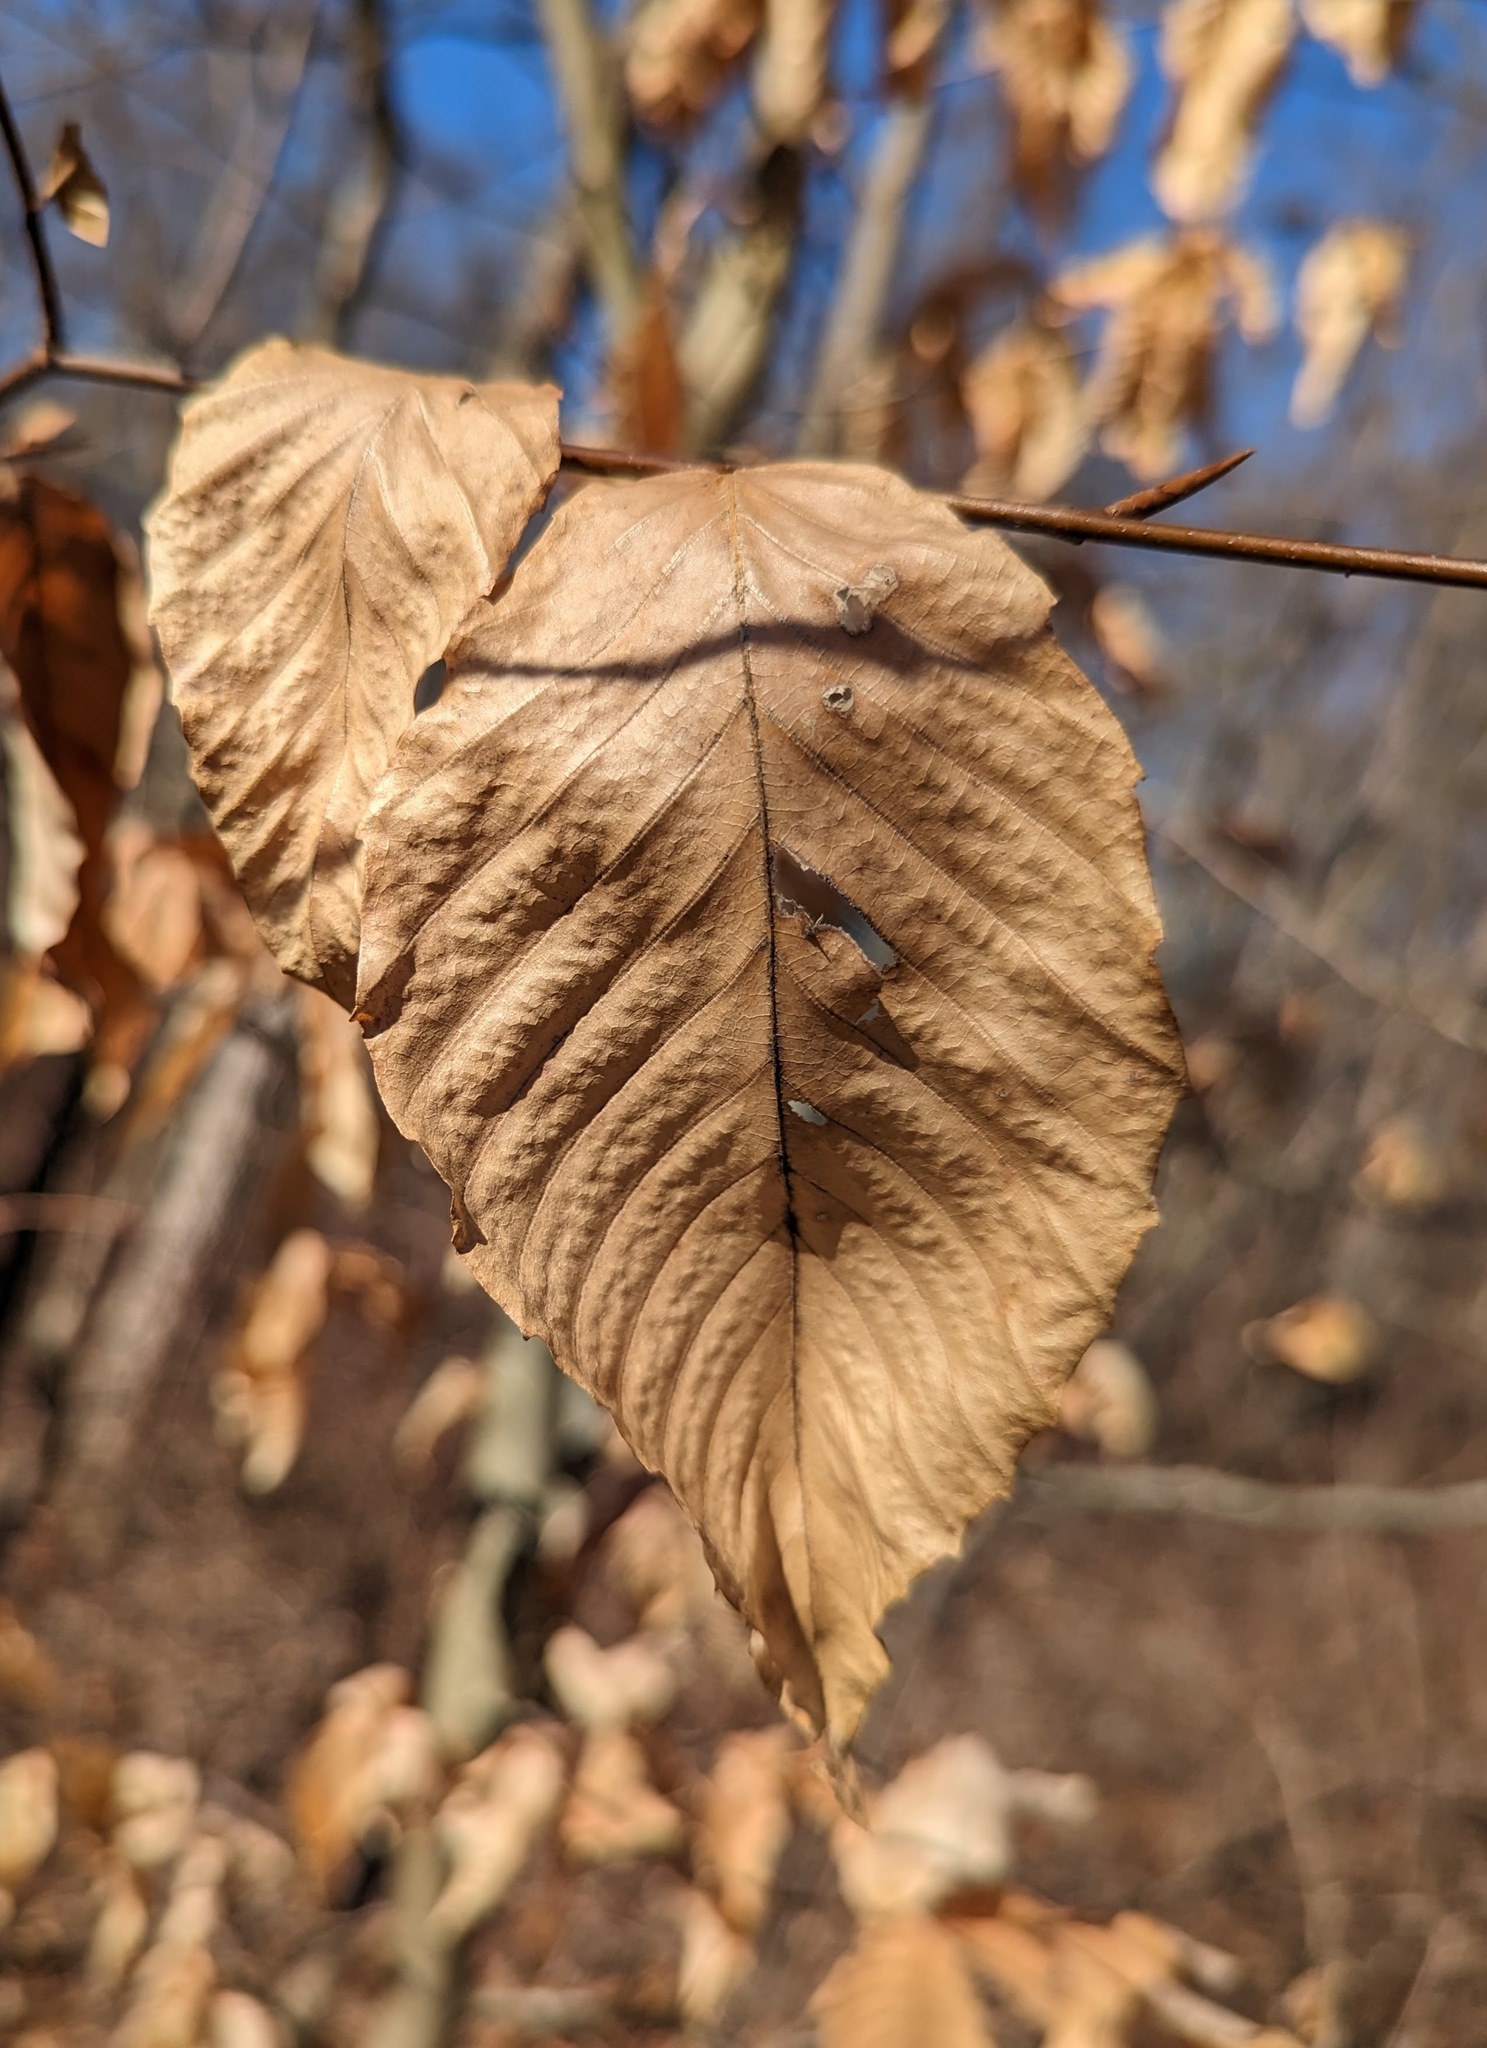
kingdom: Plantae
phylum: Tracheophyta
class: Magnoliopsida
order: Fagales
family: Fagaceae
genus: Fagus
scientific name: Fagus grandifolia
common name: American beech
